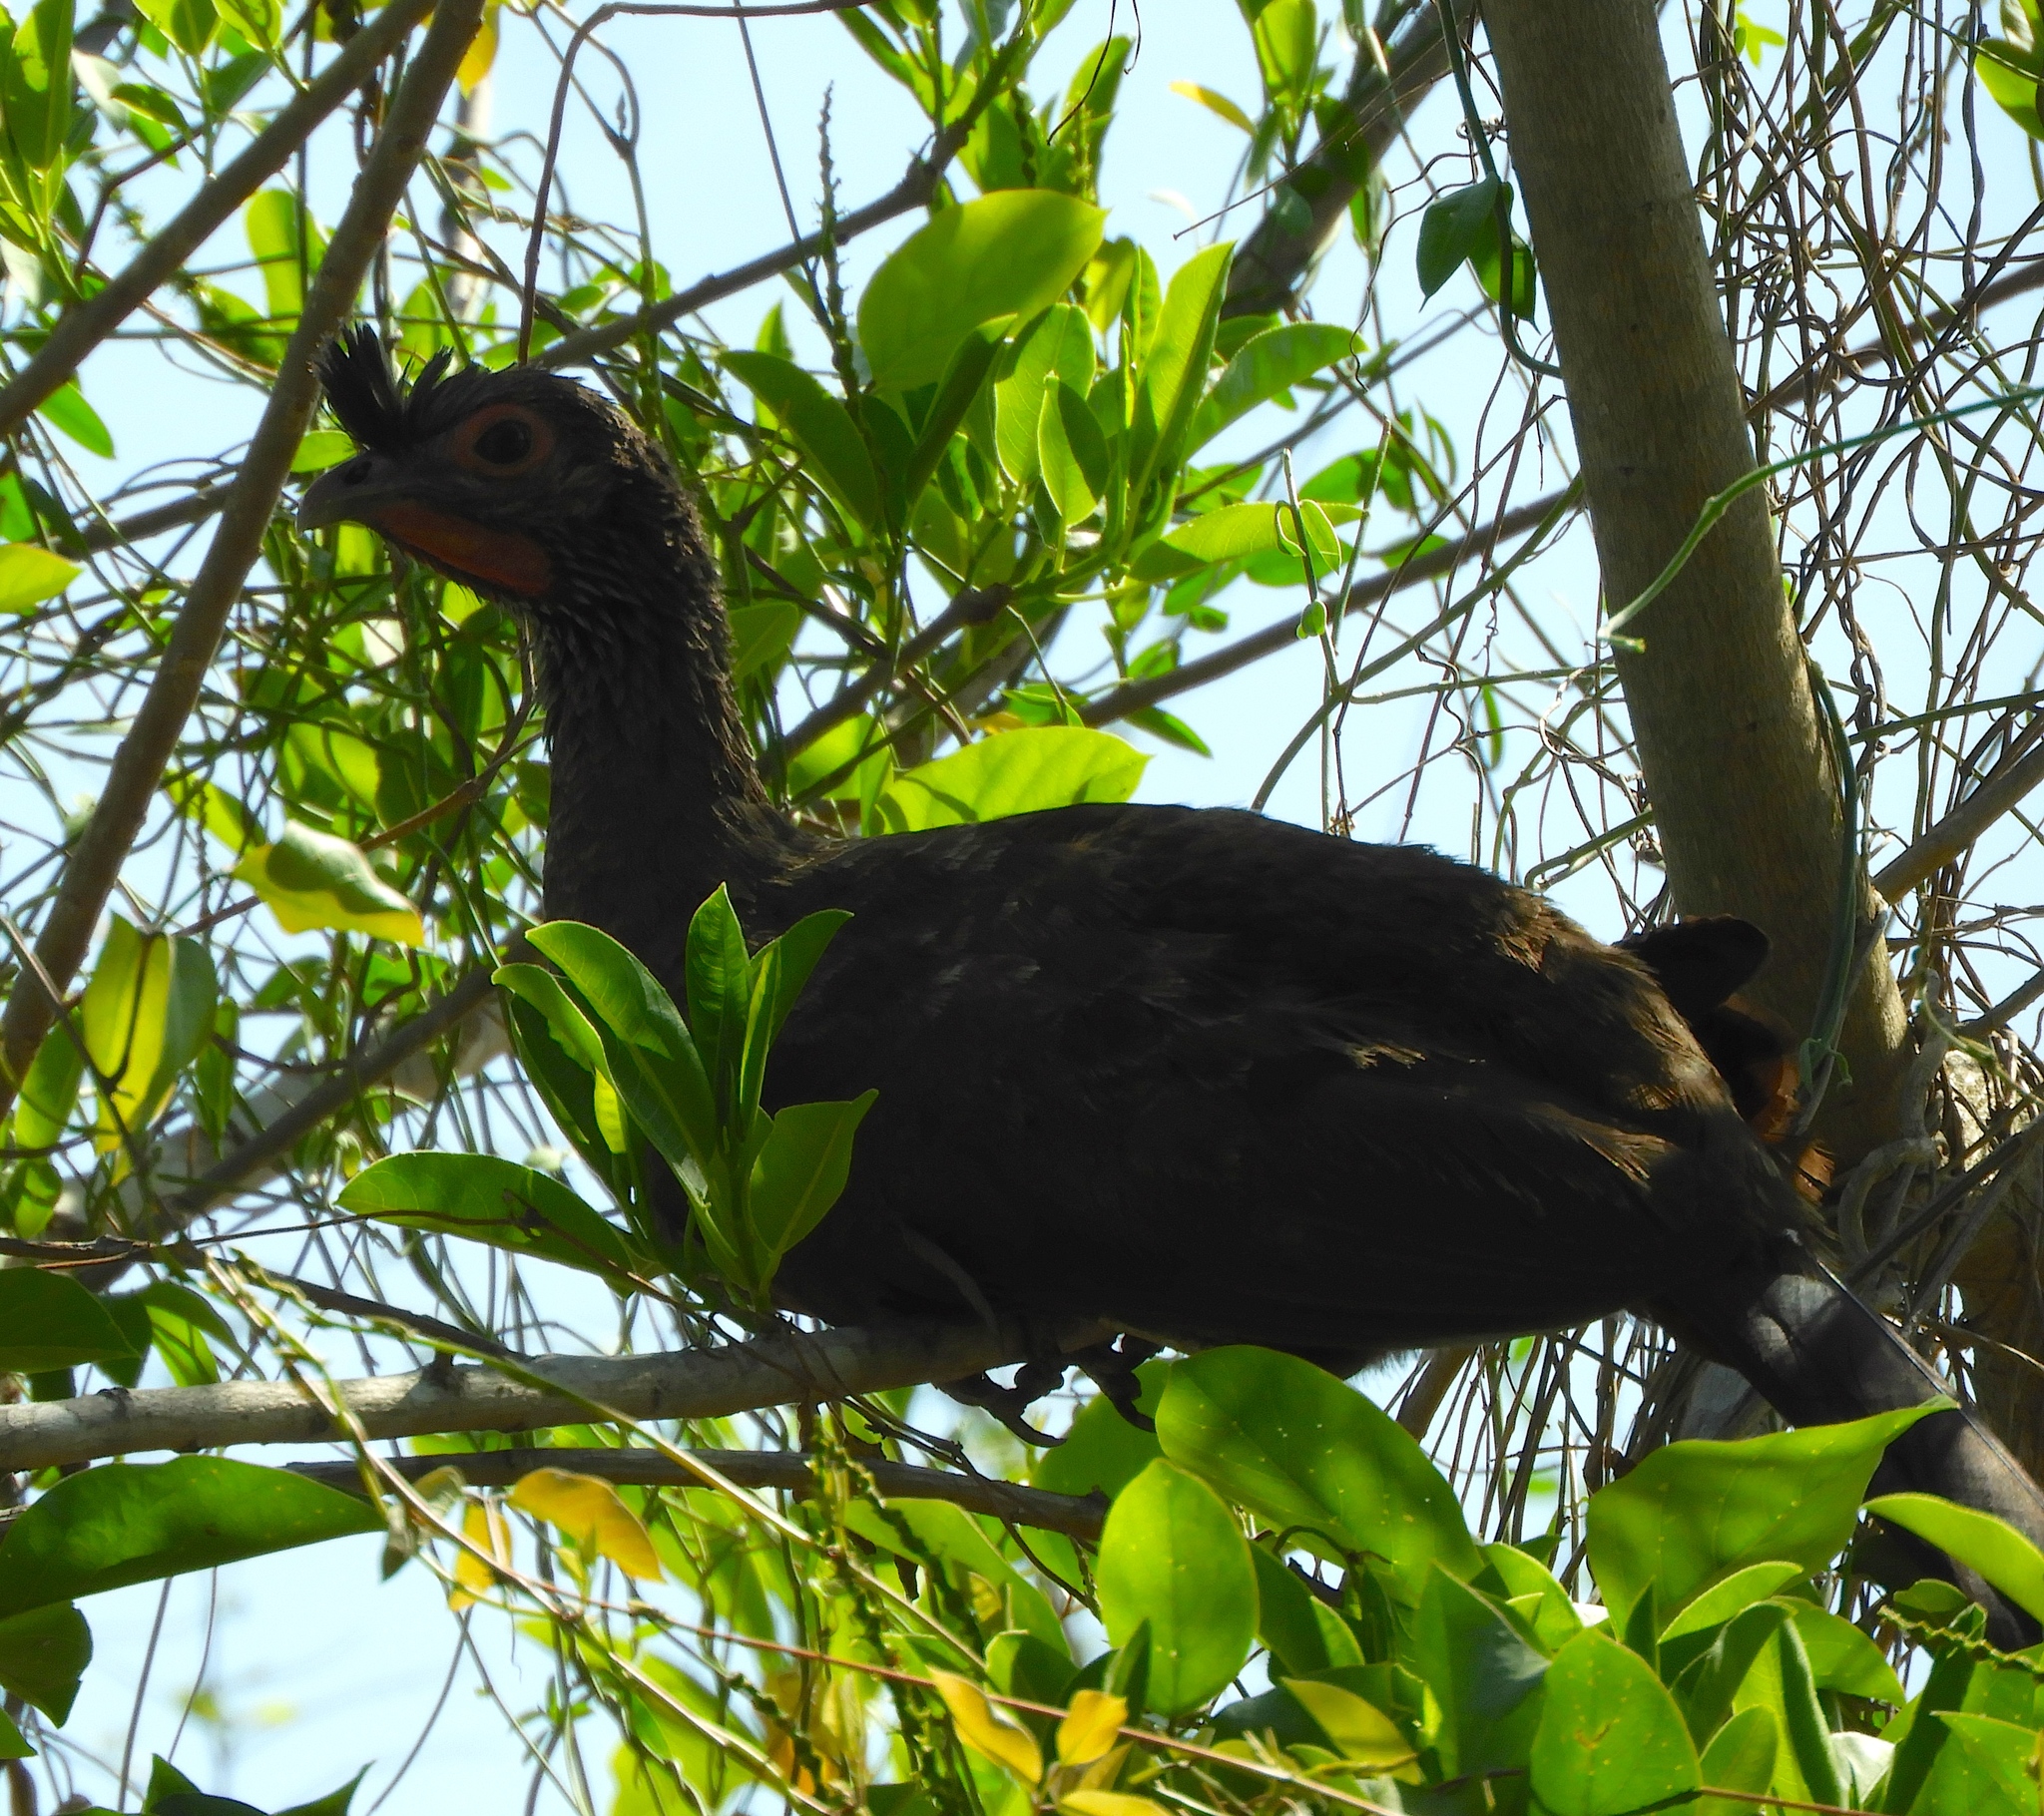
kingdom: Animalia
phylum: Chordata
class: Aves
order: Galliformes
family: Cracidae
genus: Ortalis
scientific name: Ortalis wagleri
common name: Rufous-bellied chachalaca
